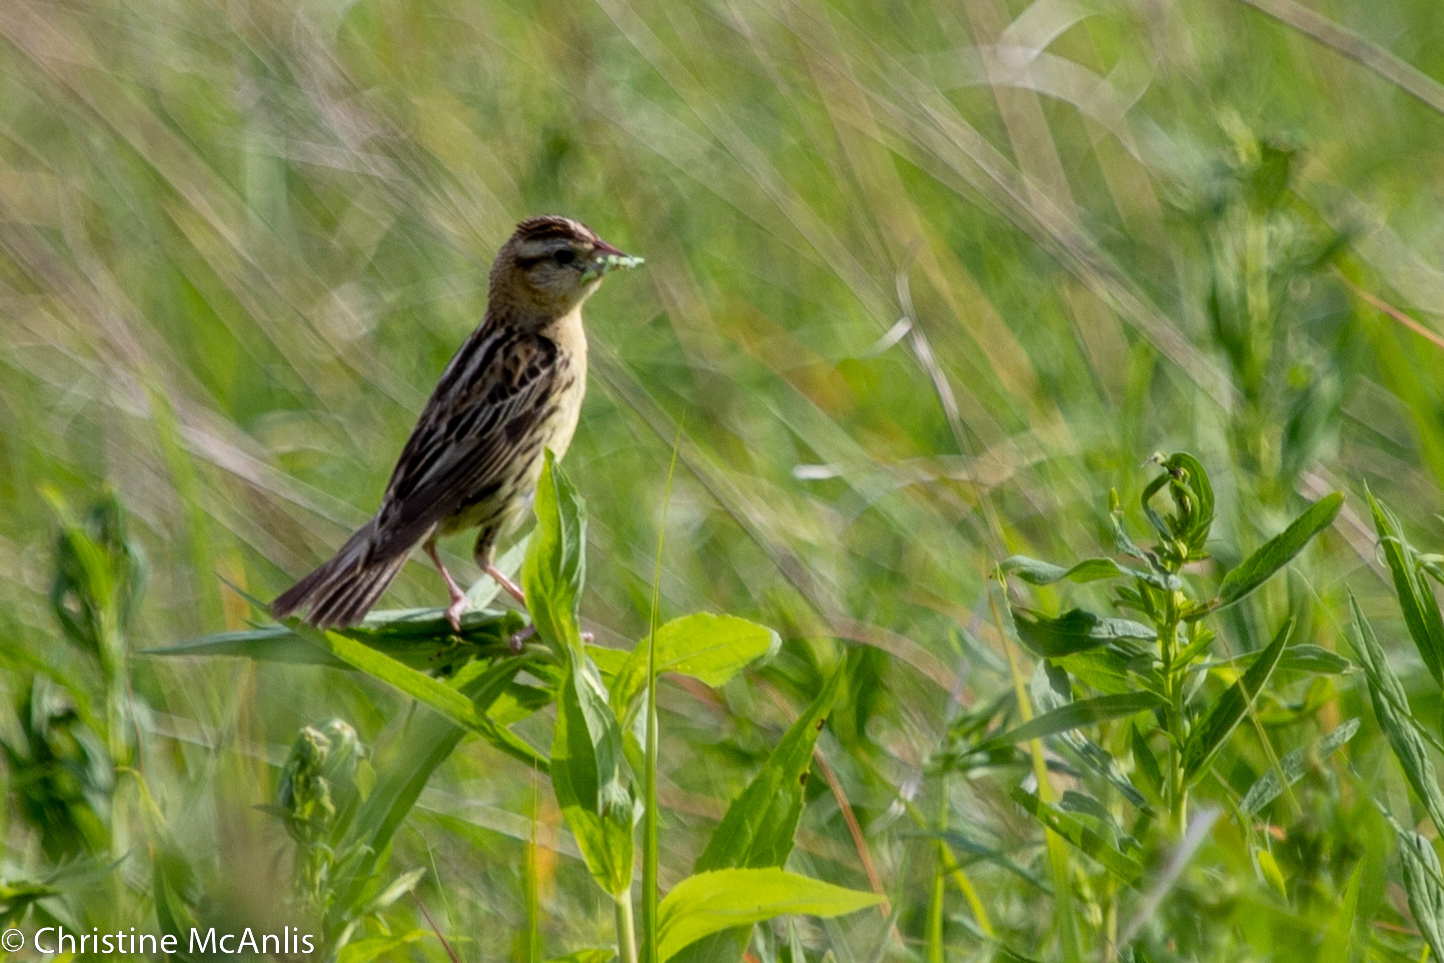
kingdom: Animalia
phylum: Chordata
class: Aves
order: Passeriformes
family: Icteridae
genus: Dolichonyx
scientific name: Dolichonyx oryzivorus
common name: Bobolink
